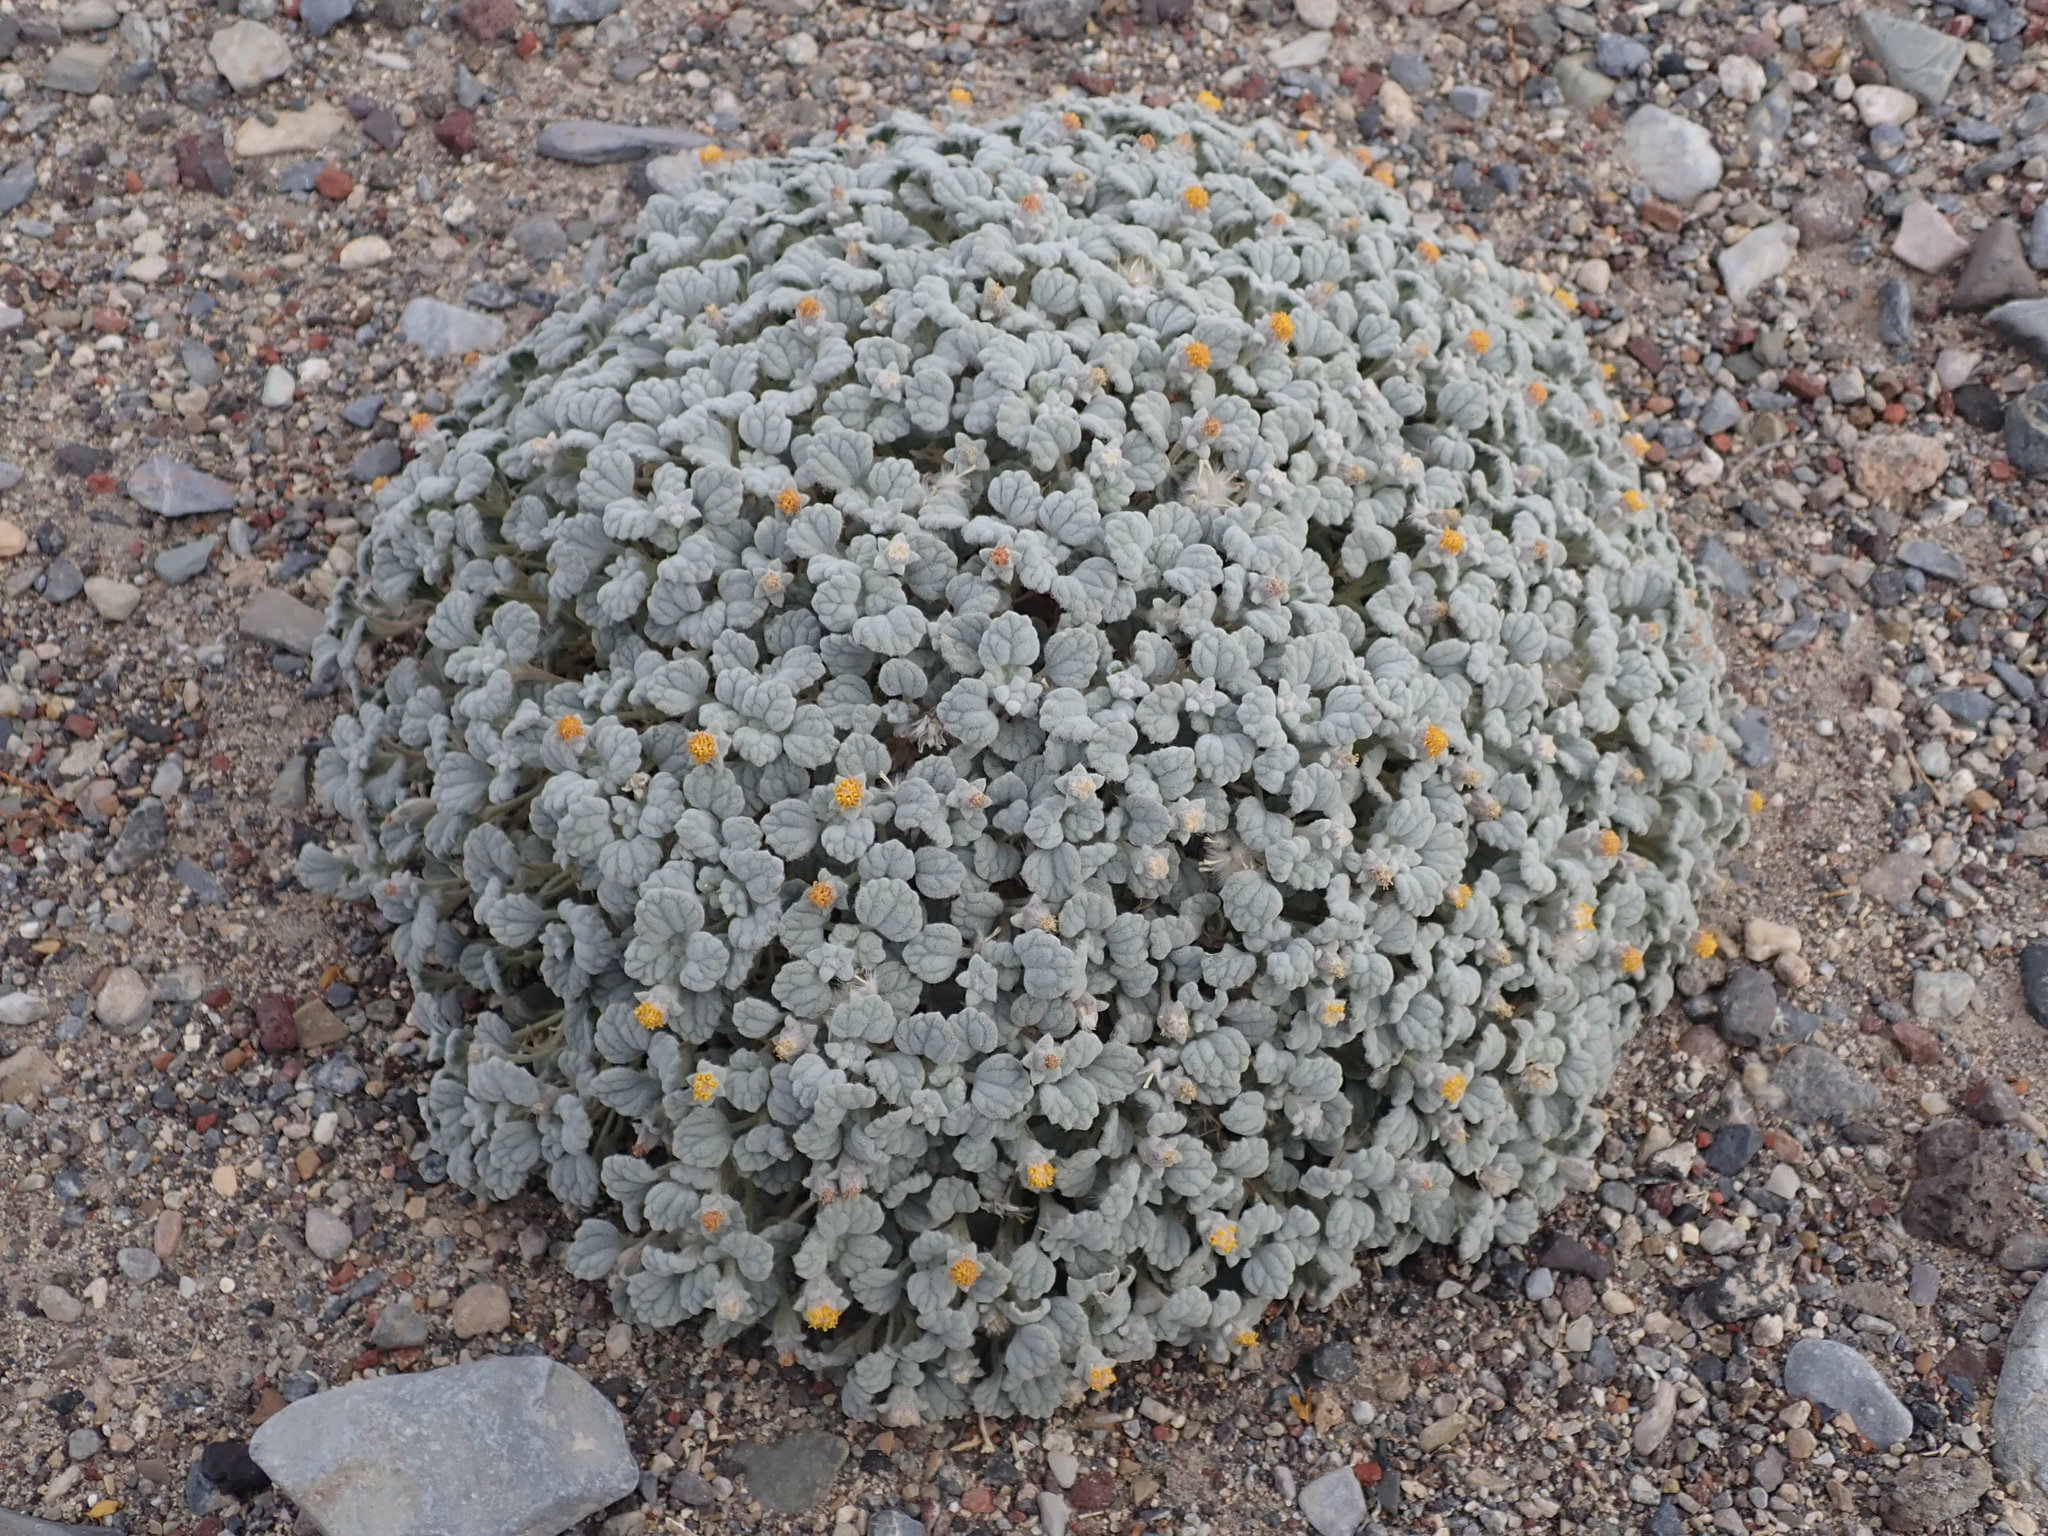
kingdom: Plantae
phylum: Tracheophyta
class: Magnoliopsida
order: Asterales
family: Asteraceae
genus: Psathyrotes
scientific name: Psathyrotes ramosissima
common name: Turtleback
